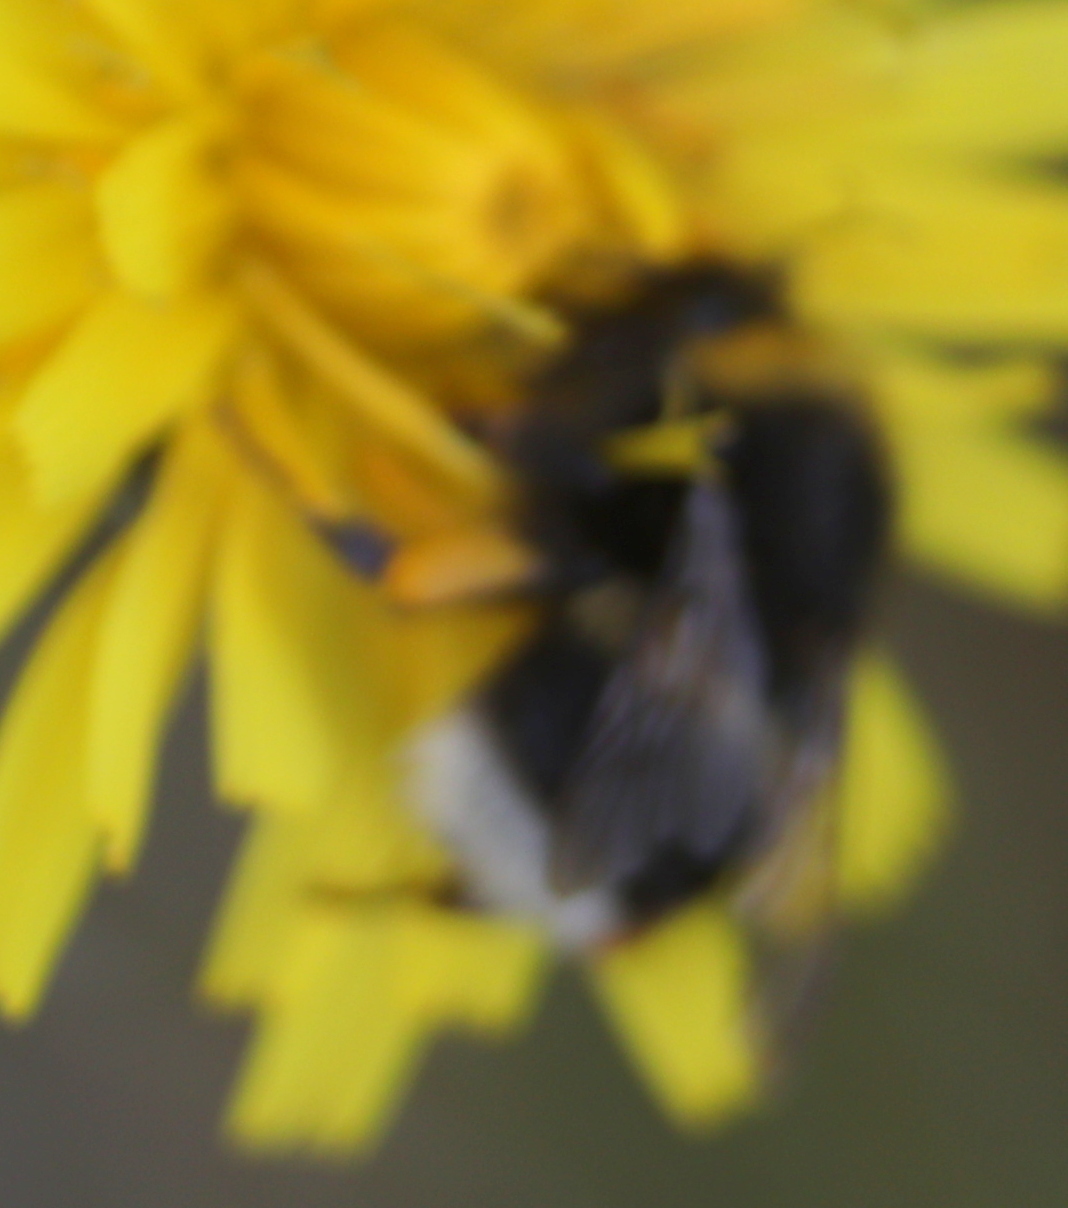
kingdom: Animalia
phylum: Arthropoda
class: Insecta
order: Hymenoptera
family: Apidae
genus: Bombus
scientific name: Bombus lucorum
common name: White-tailed bumblebee
